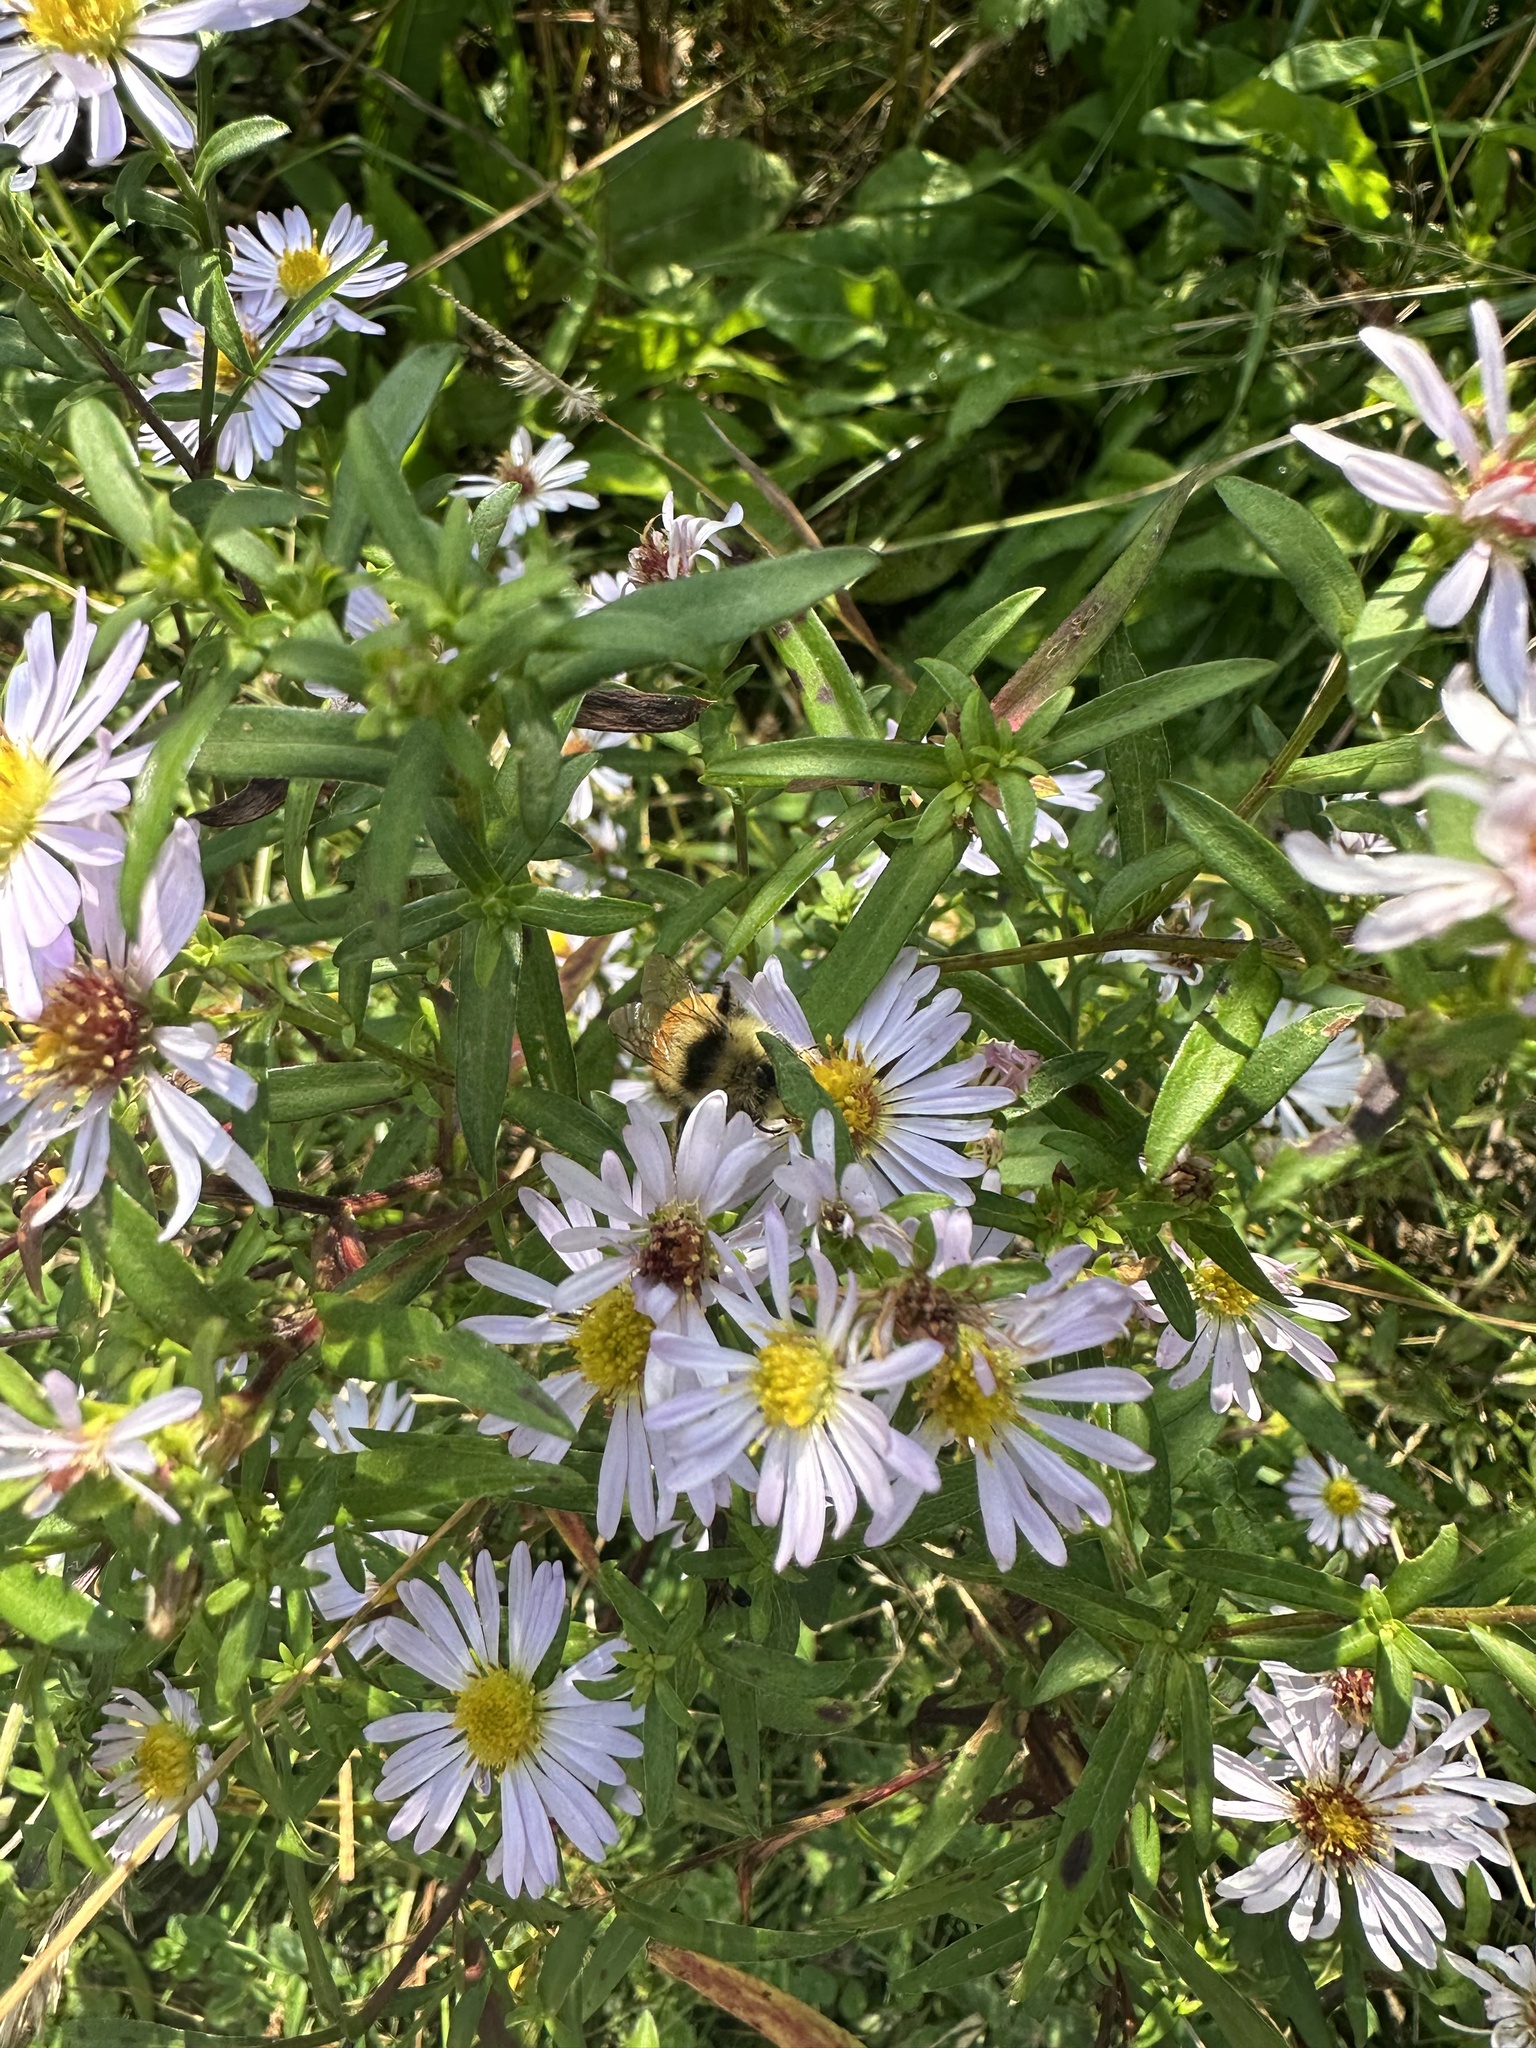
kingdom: Animalia
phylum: Arthropoda
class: Insecta
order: Hymenoptera
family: Apidae
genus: Bombus
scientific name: Bombus ternarius
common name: Tri-colored bumble bee
